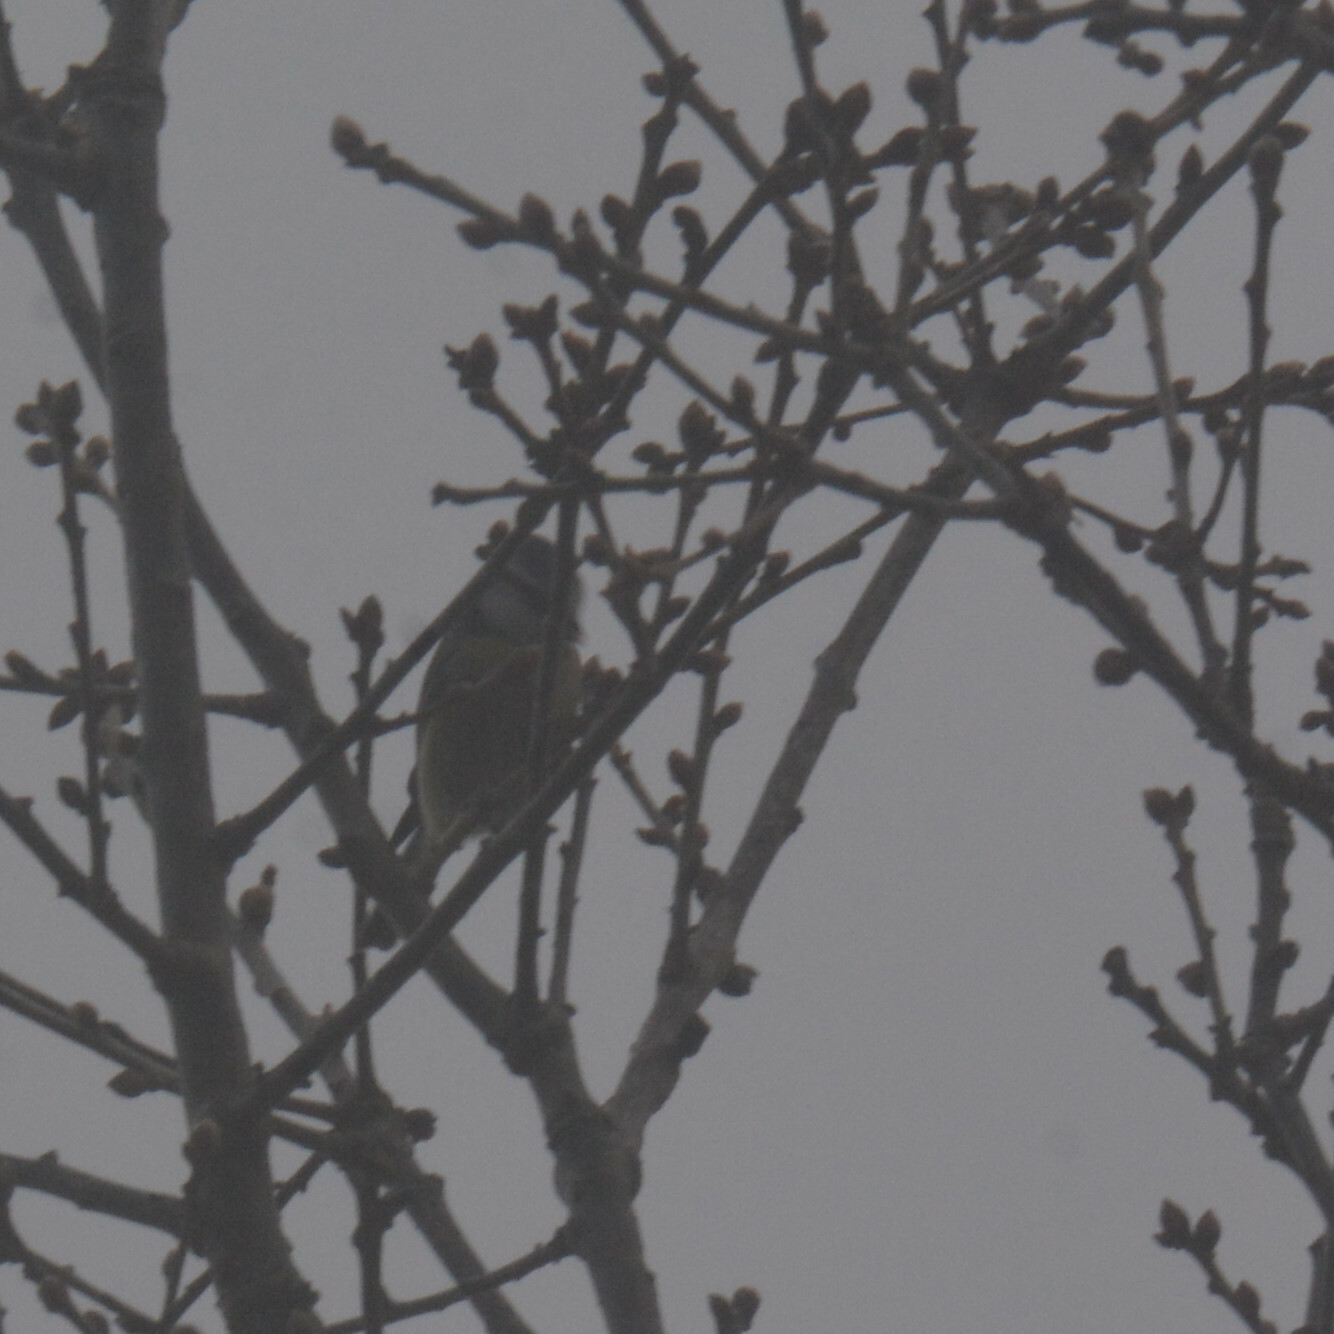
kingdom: Animalia
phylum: Chordata
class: Aves
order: Passeriformes
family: Paridae
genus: Cyanistes
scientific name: Cyanistes caeruleus
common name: Eurasian blue tit
